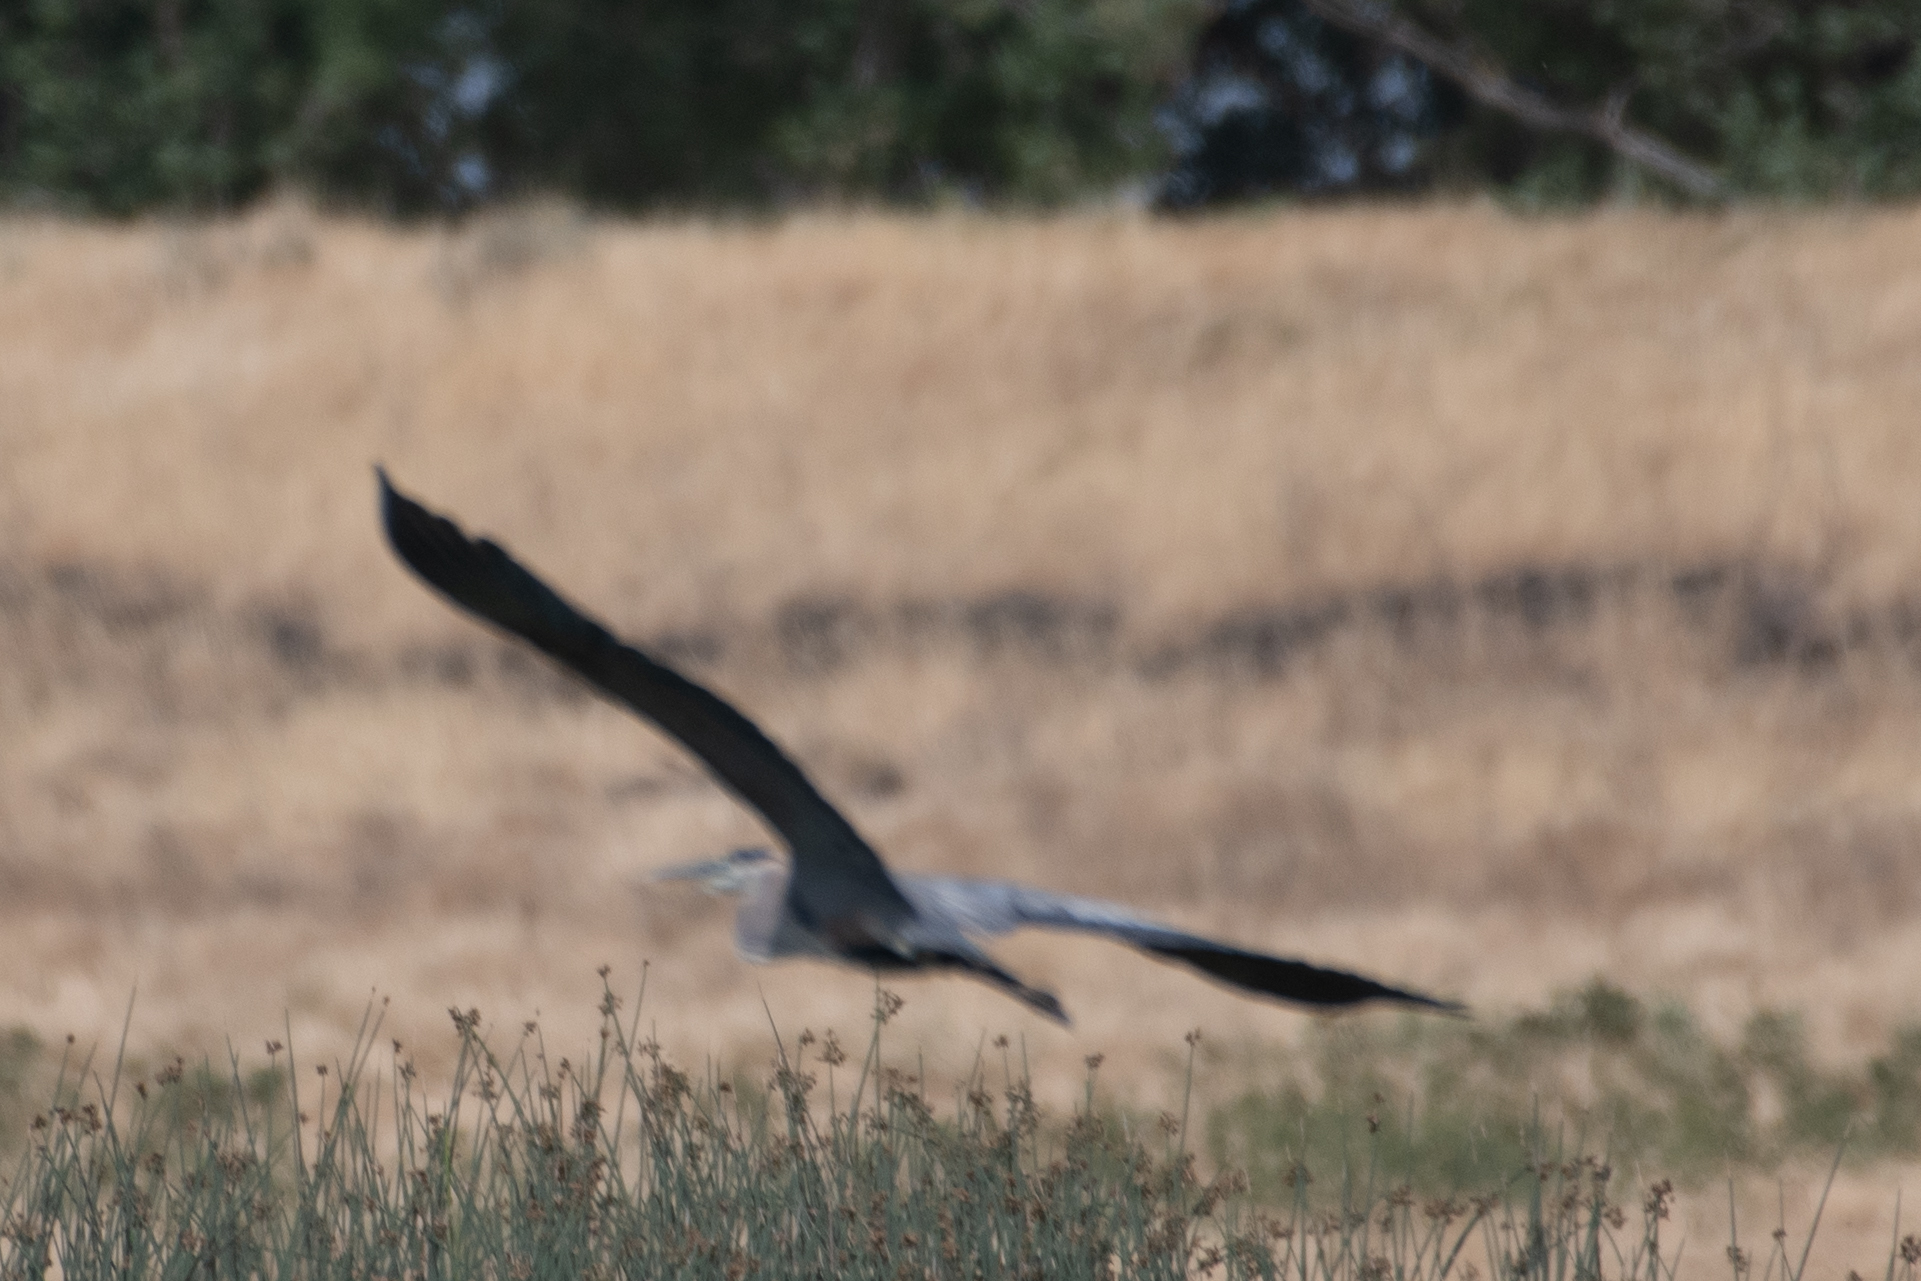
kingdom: Animalia
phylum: Chordata
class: Aves
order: Pelecaniformes
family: Ardeidae
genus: Ardea
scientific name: Ardea herodias
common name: Great blue heron
